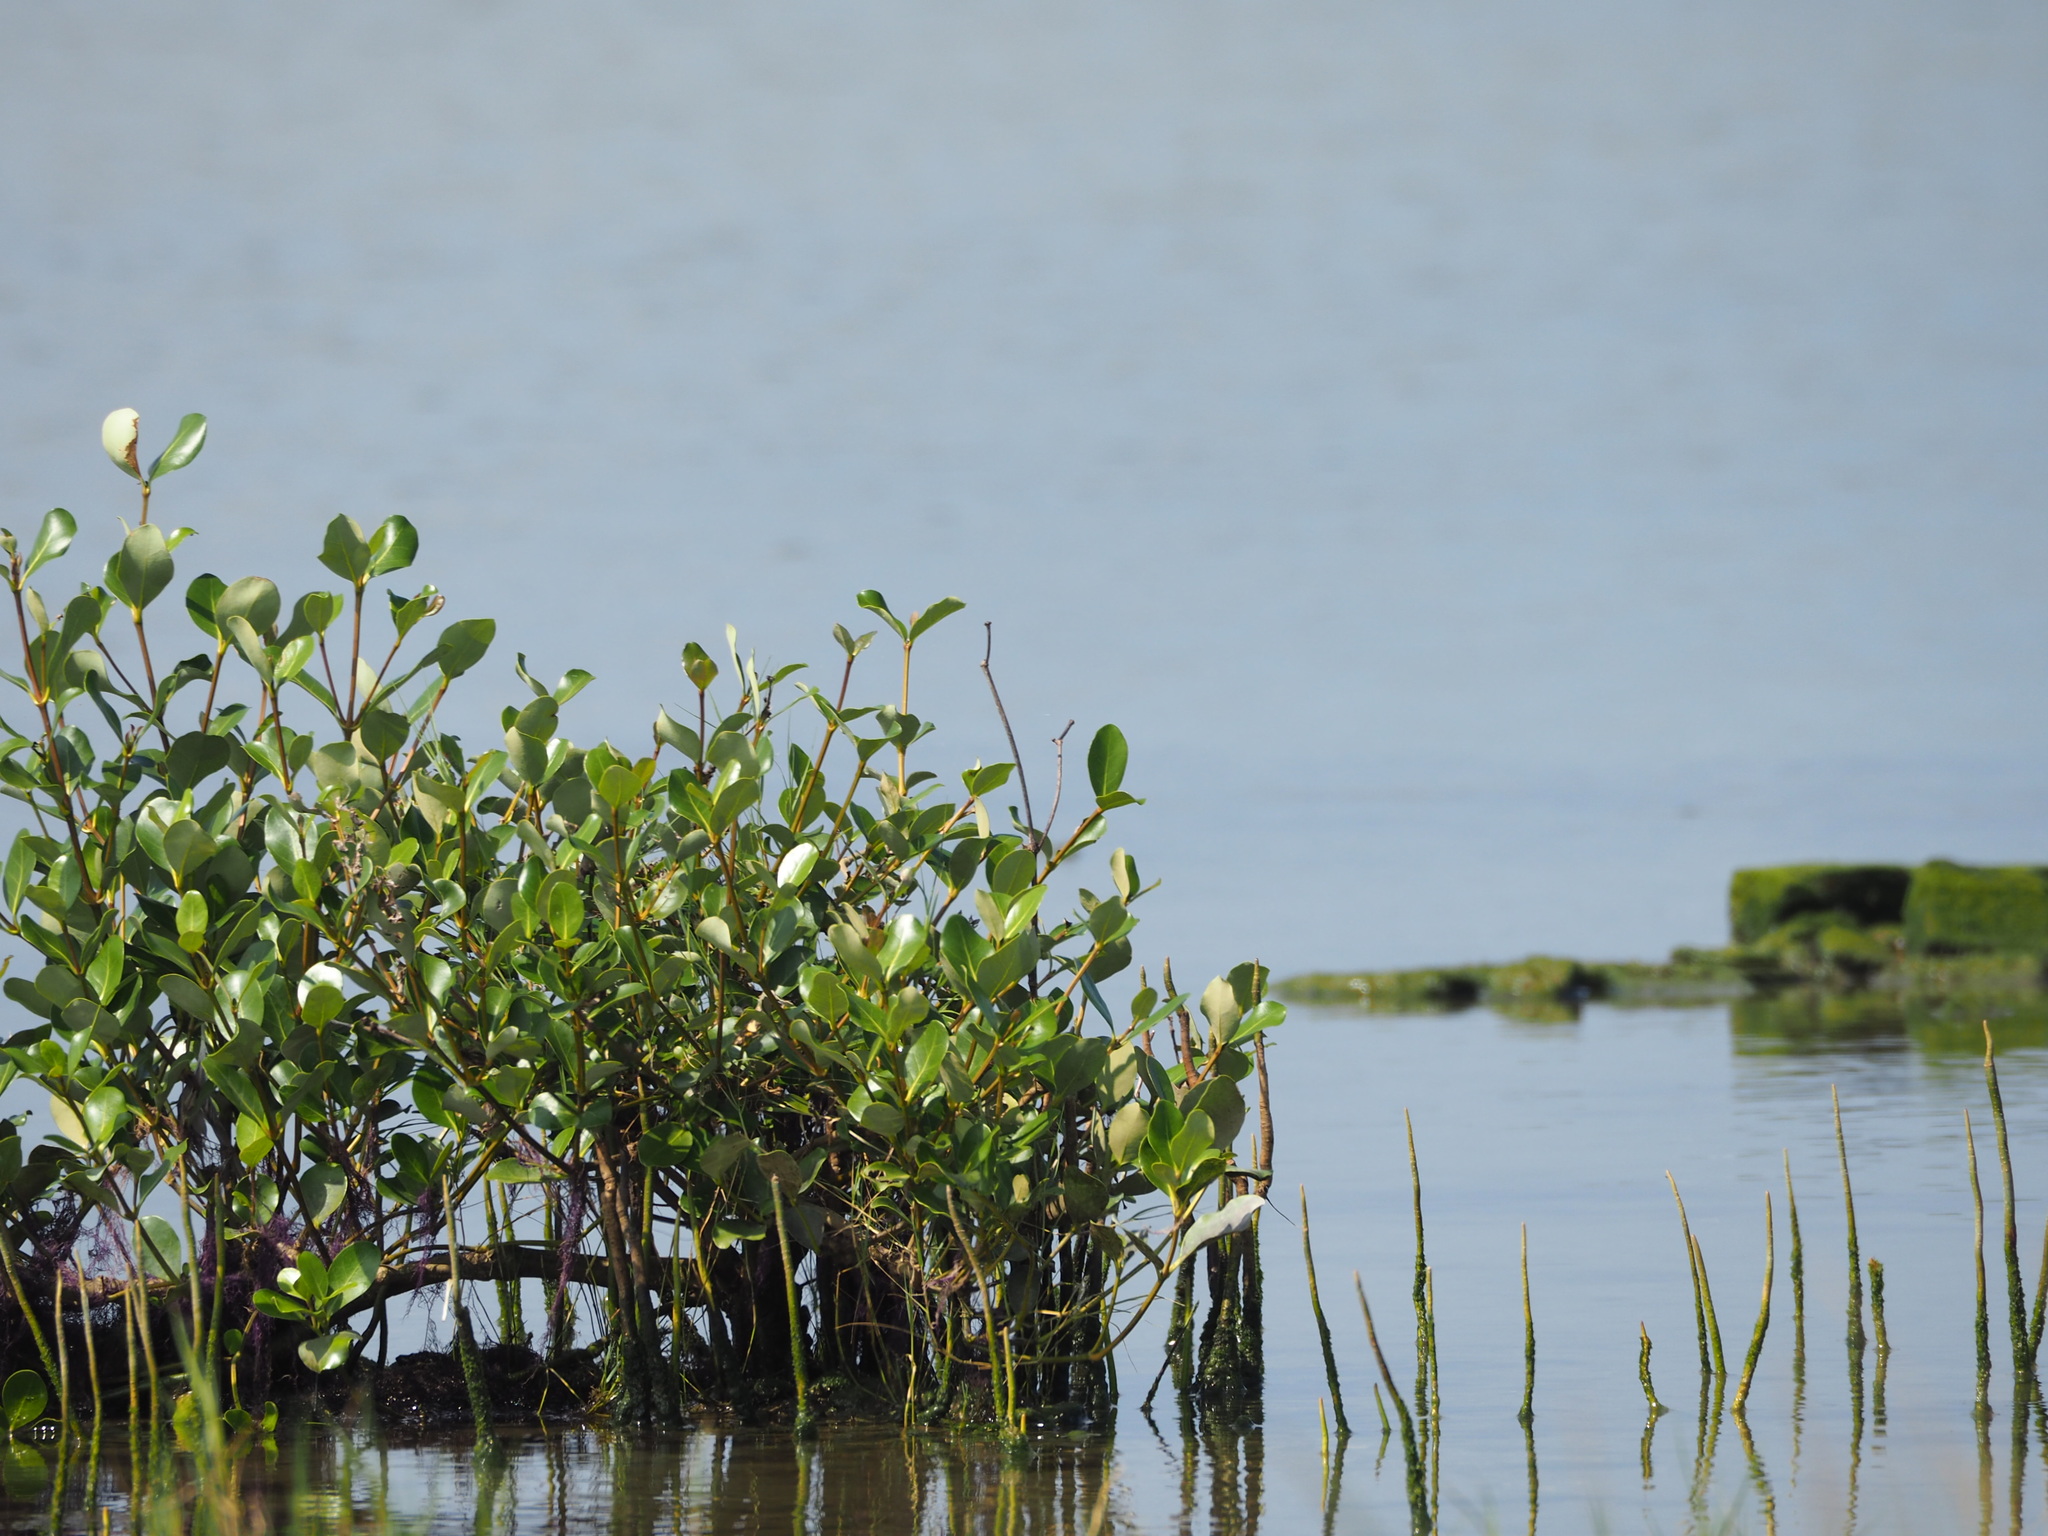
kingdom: Plantae
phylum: Tracheophyta
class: Magnoliopsida
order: Lamiales
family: Acanthaceae
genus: Avicennia
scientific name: Avicennia marina
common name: Gray mangrove
